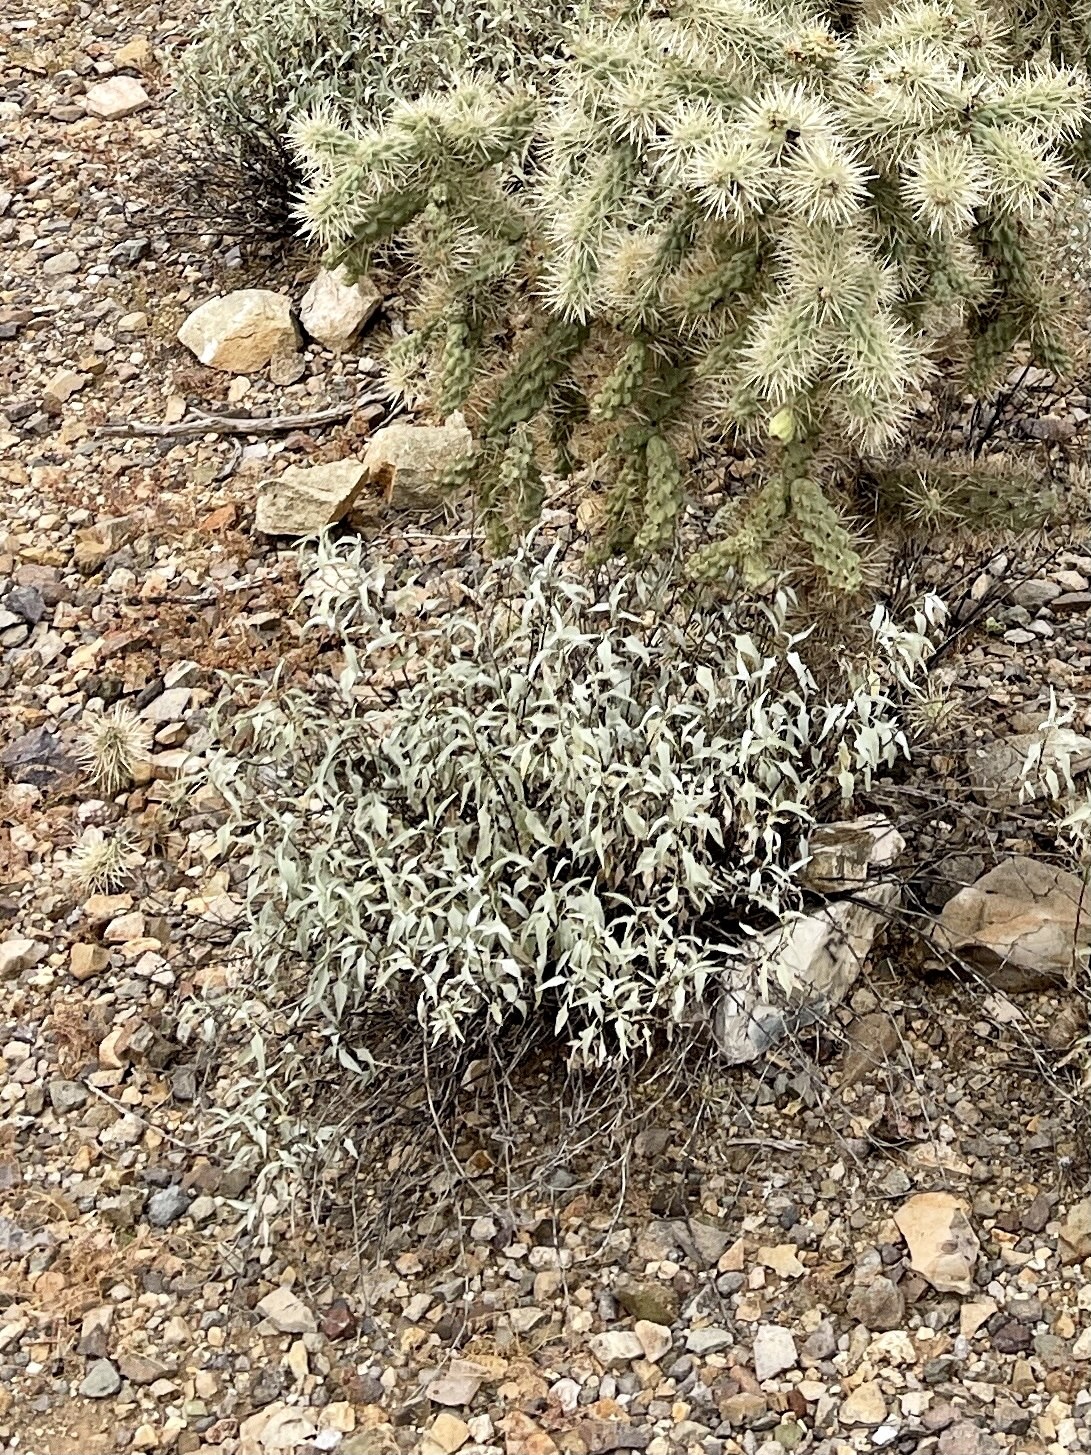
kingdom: Plantae
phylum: Tracheophyta
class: Magnoliopsida
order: Asterales
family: Asteraceae
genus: Ambrosia
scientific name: Ambrosia deltoidea
